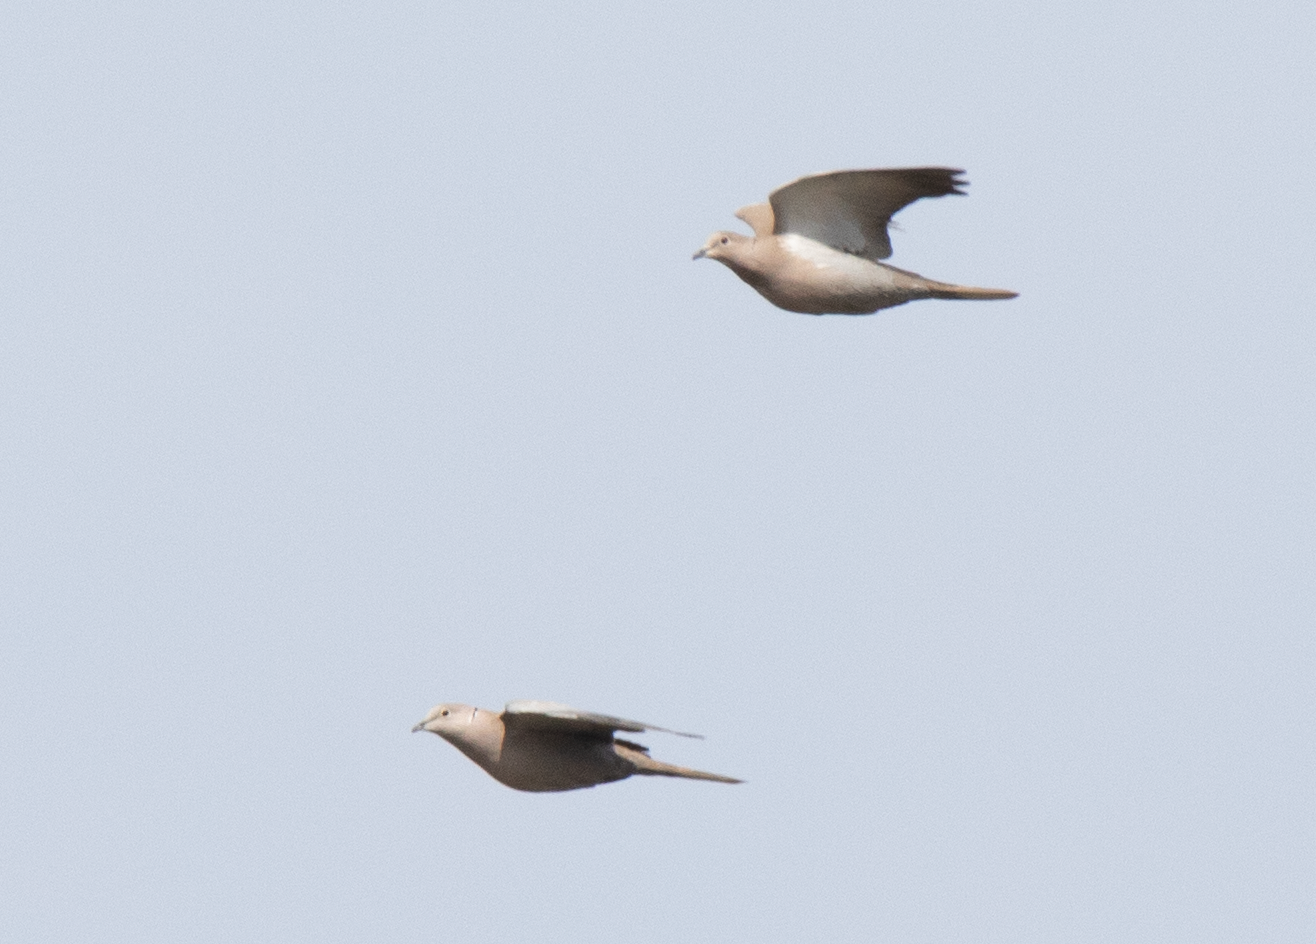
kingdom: Animalia
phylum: Chordata
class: Aves
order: Columbiformes
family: Columbidae
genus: Streptopelia
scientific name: Streptopelia decaocto
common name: Eurasian collared dove
